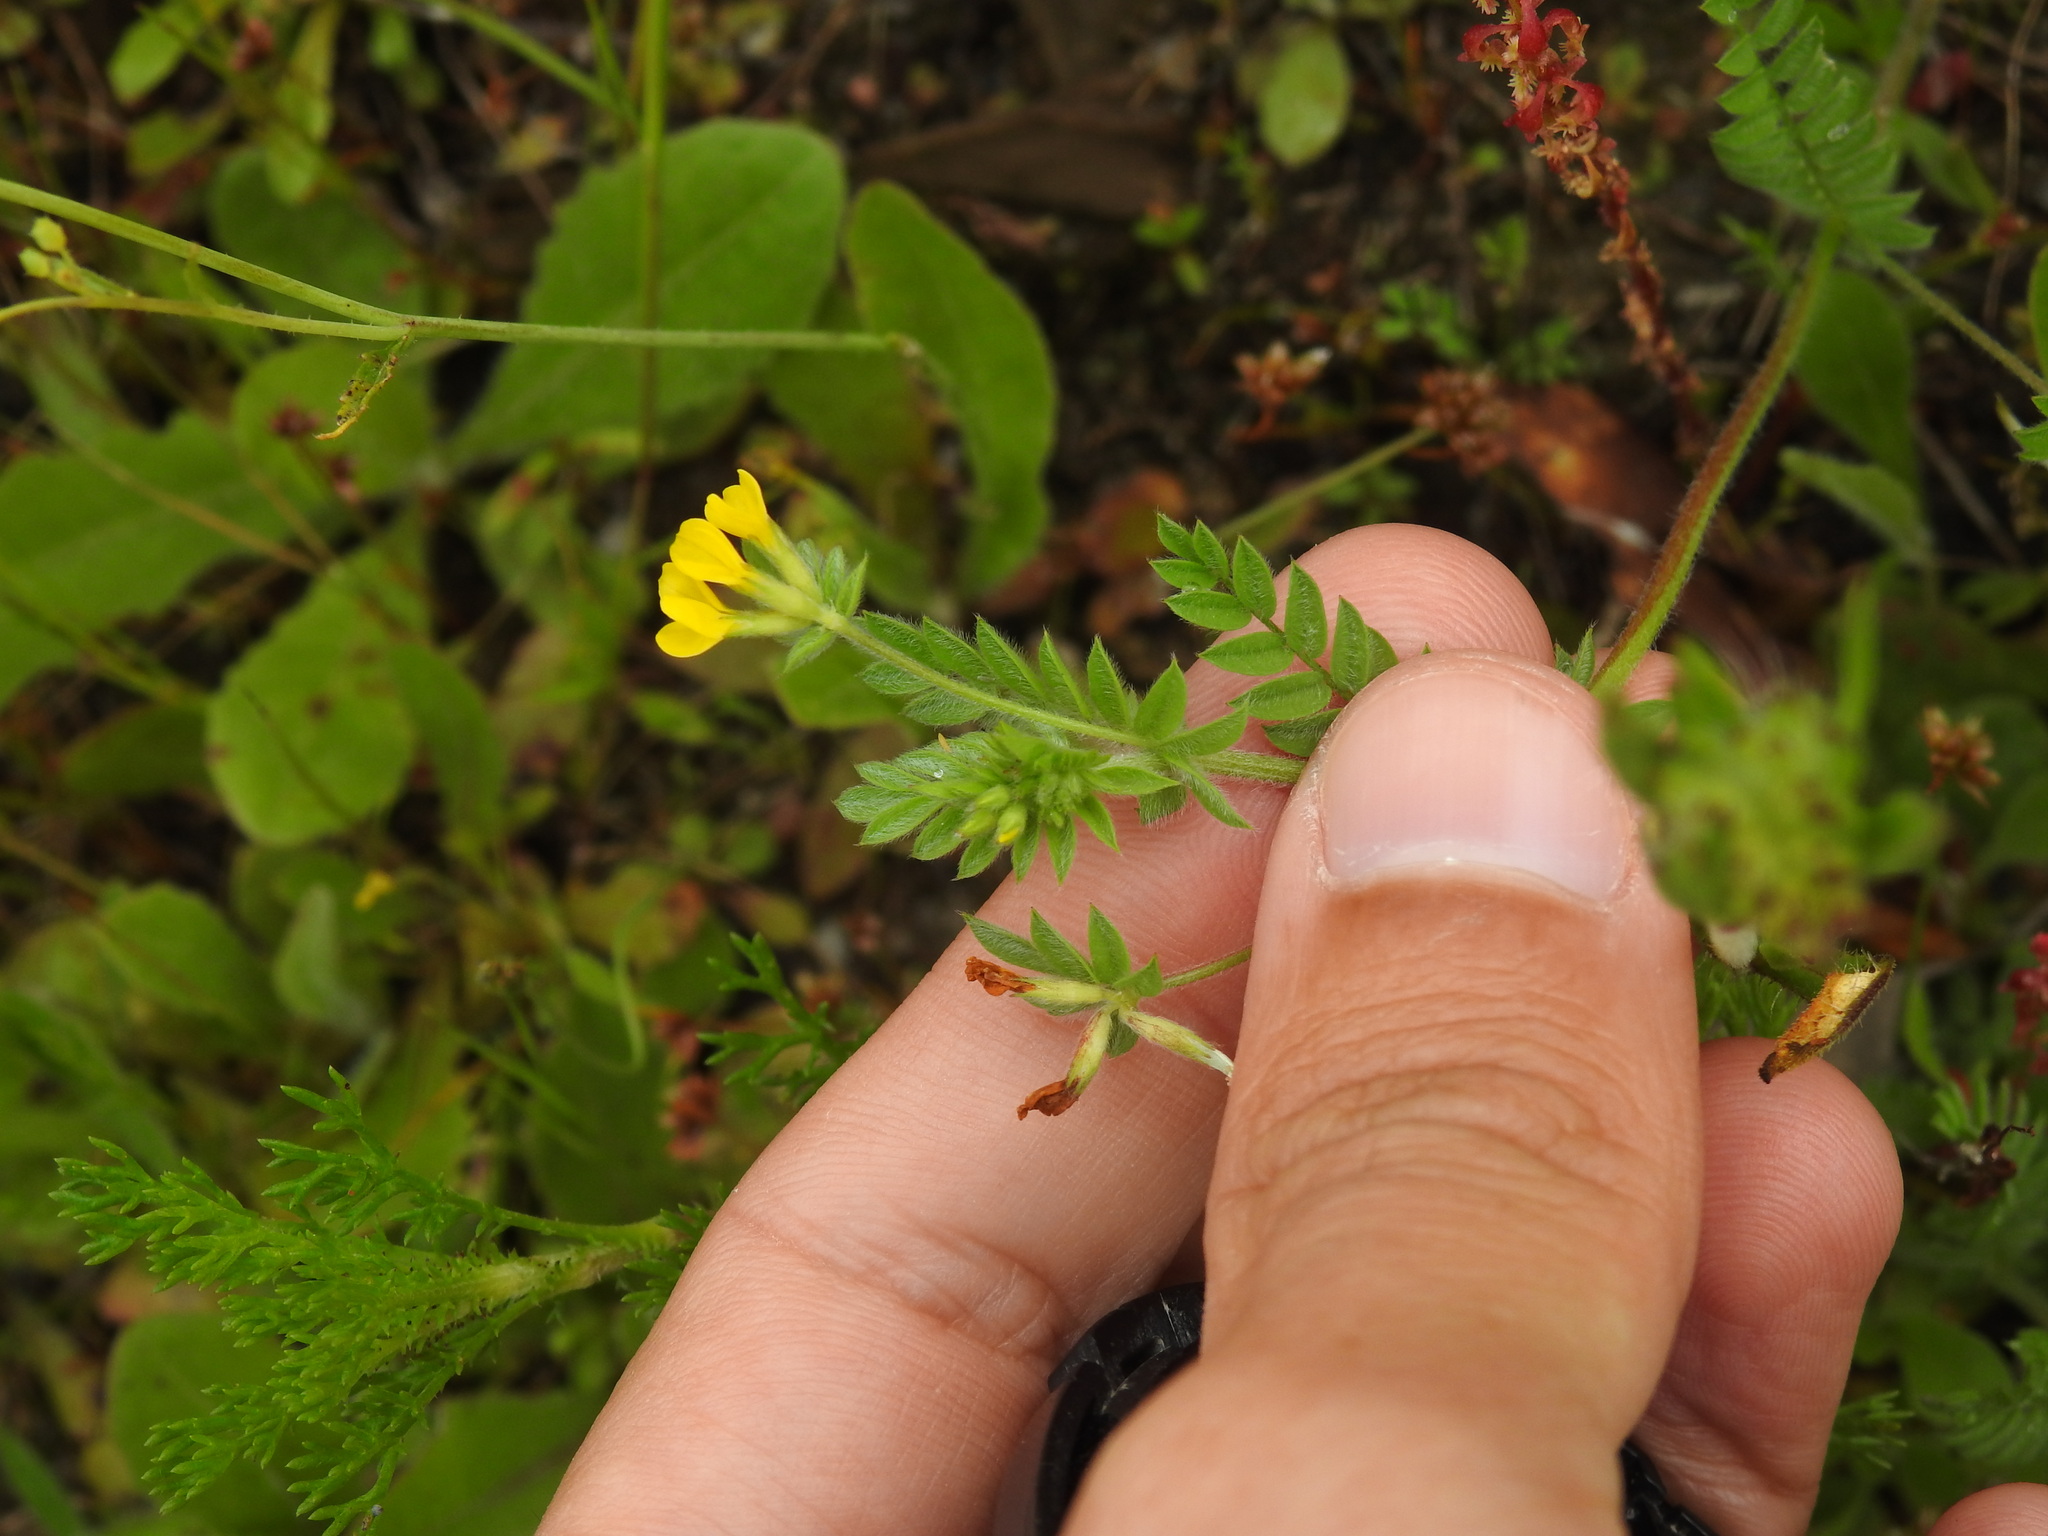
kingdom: Plantae
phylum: Tracheophyta
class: Magnoliopsida
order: Fabales
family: Fabaceae
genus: Ornithopus
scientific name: Ornithopus compressus
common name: Yellow serradella
